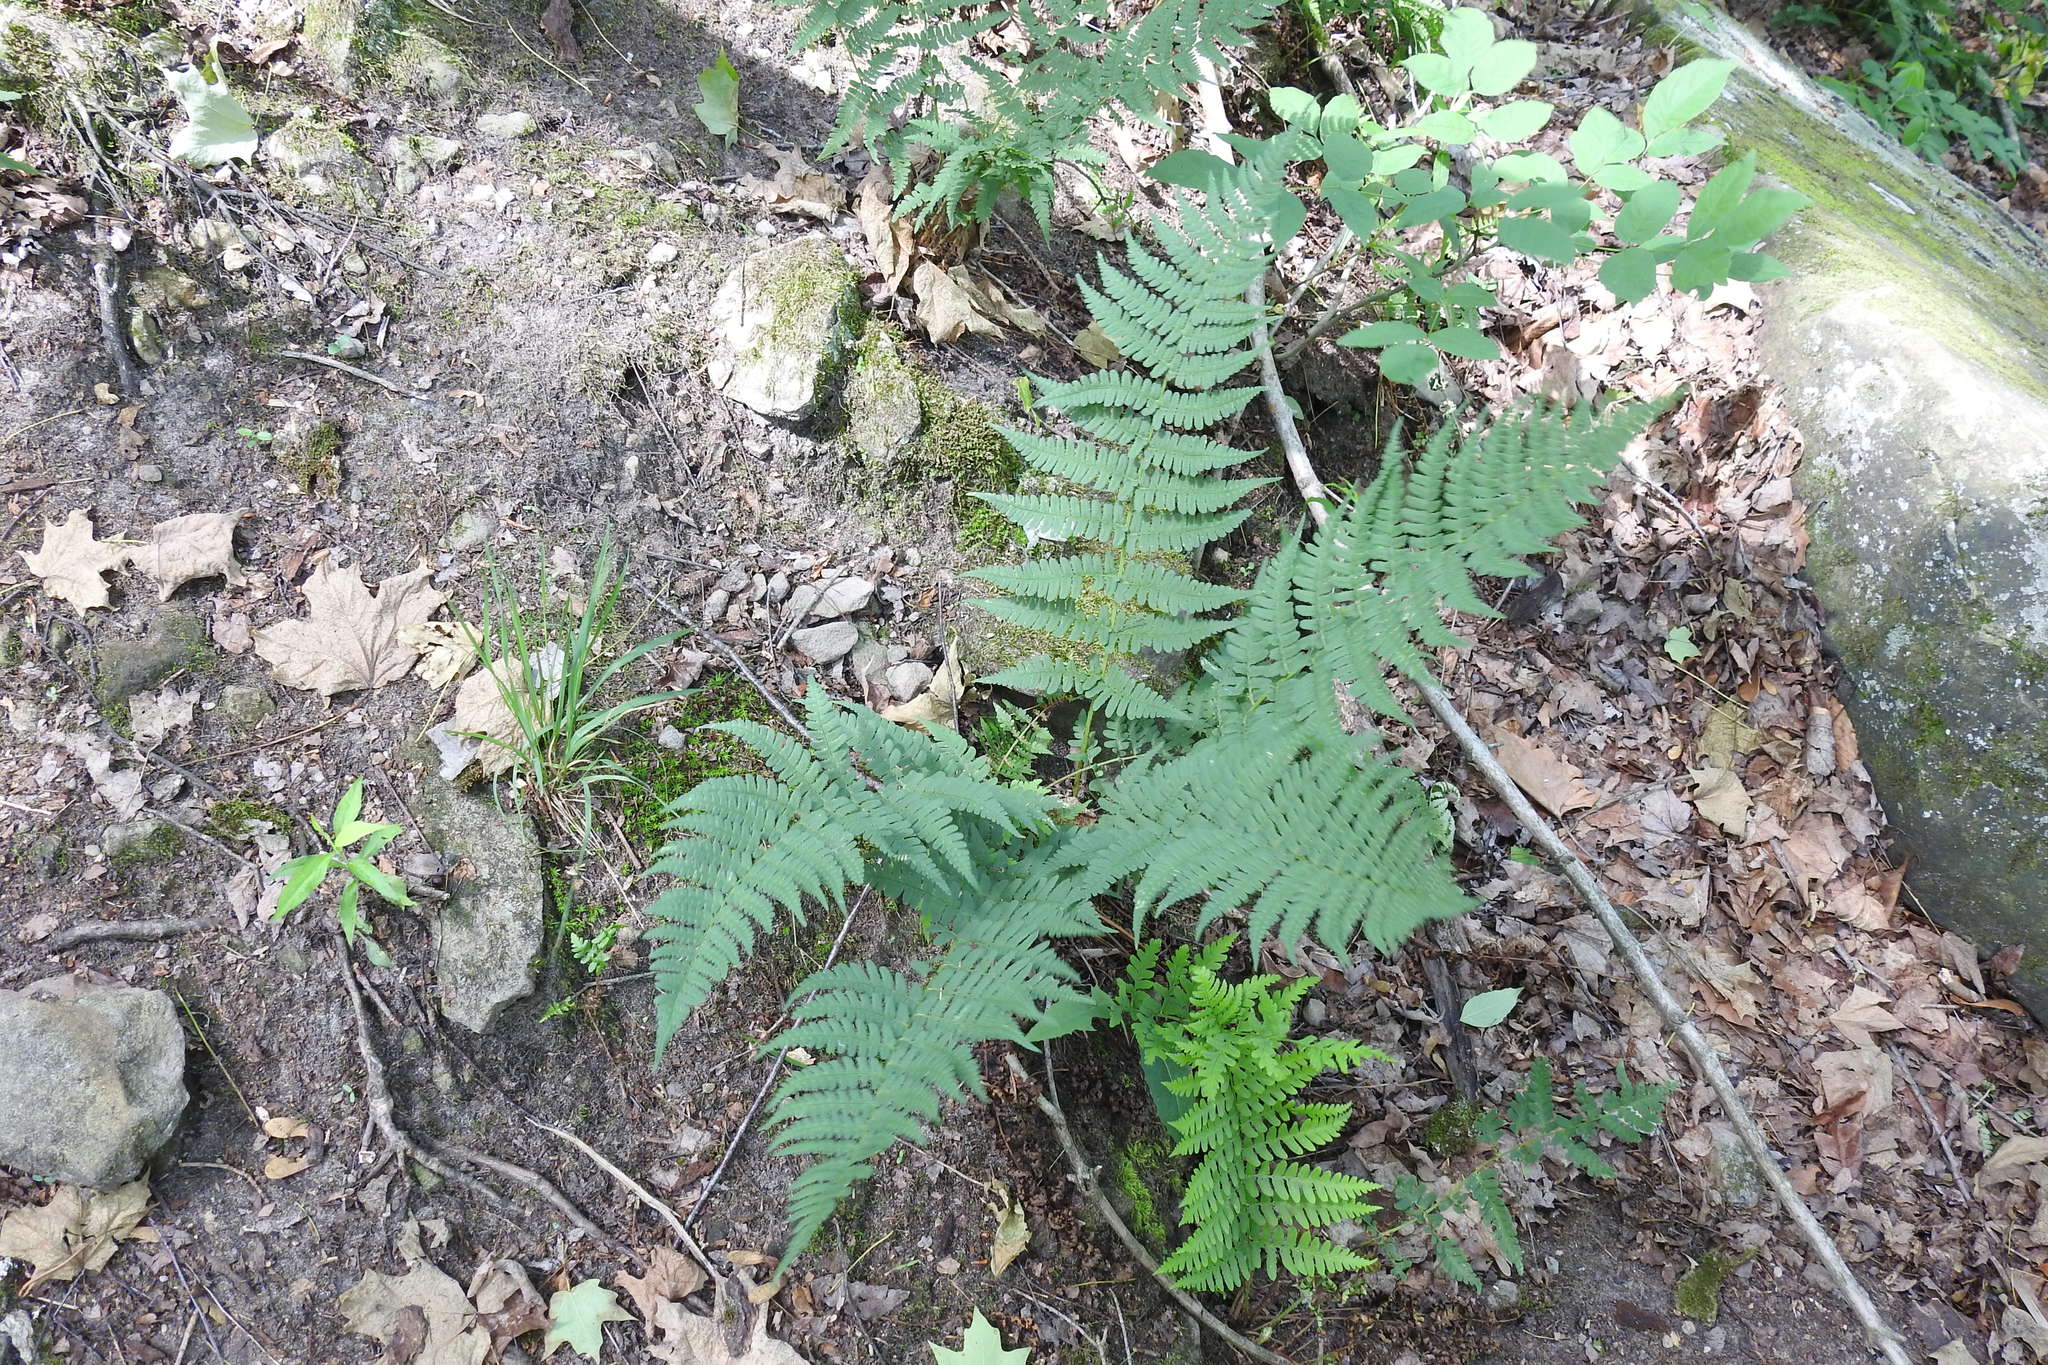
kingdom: Plantae
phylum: Tracheophyta
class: Polypodiopsida
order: Polypodiales
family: Dryopteridaceae
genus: Dryopteris
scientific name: Dryopteris marginalis
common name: Marginal wood fern
